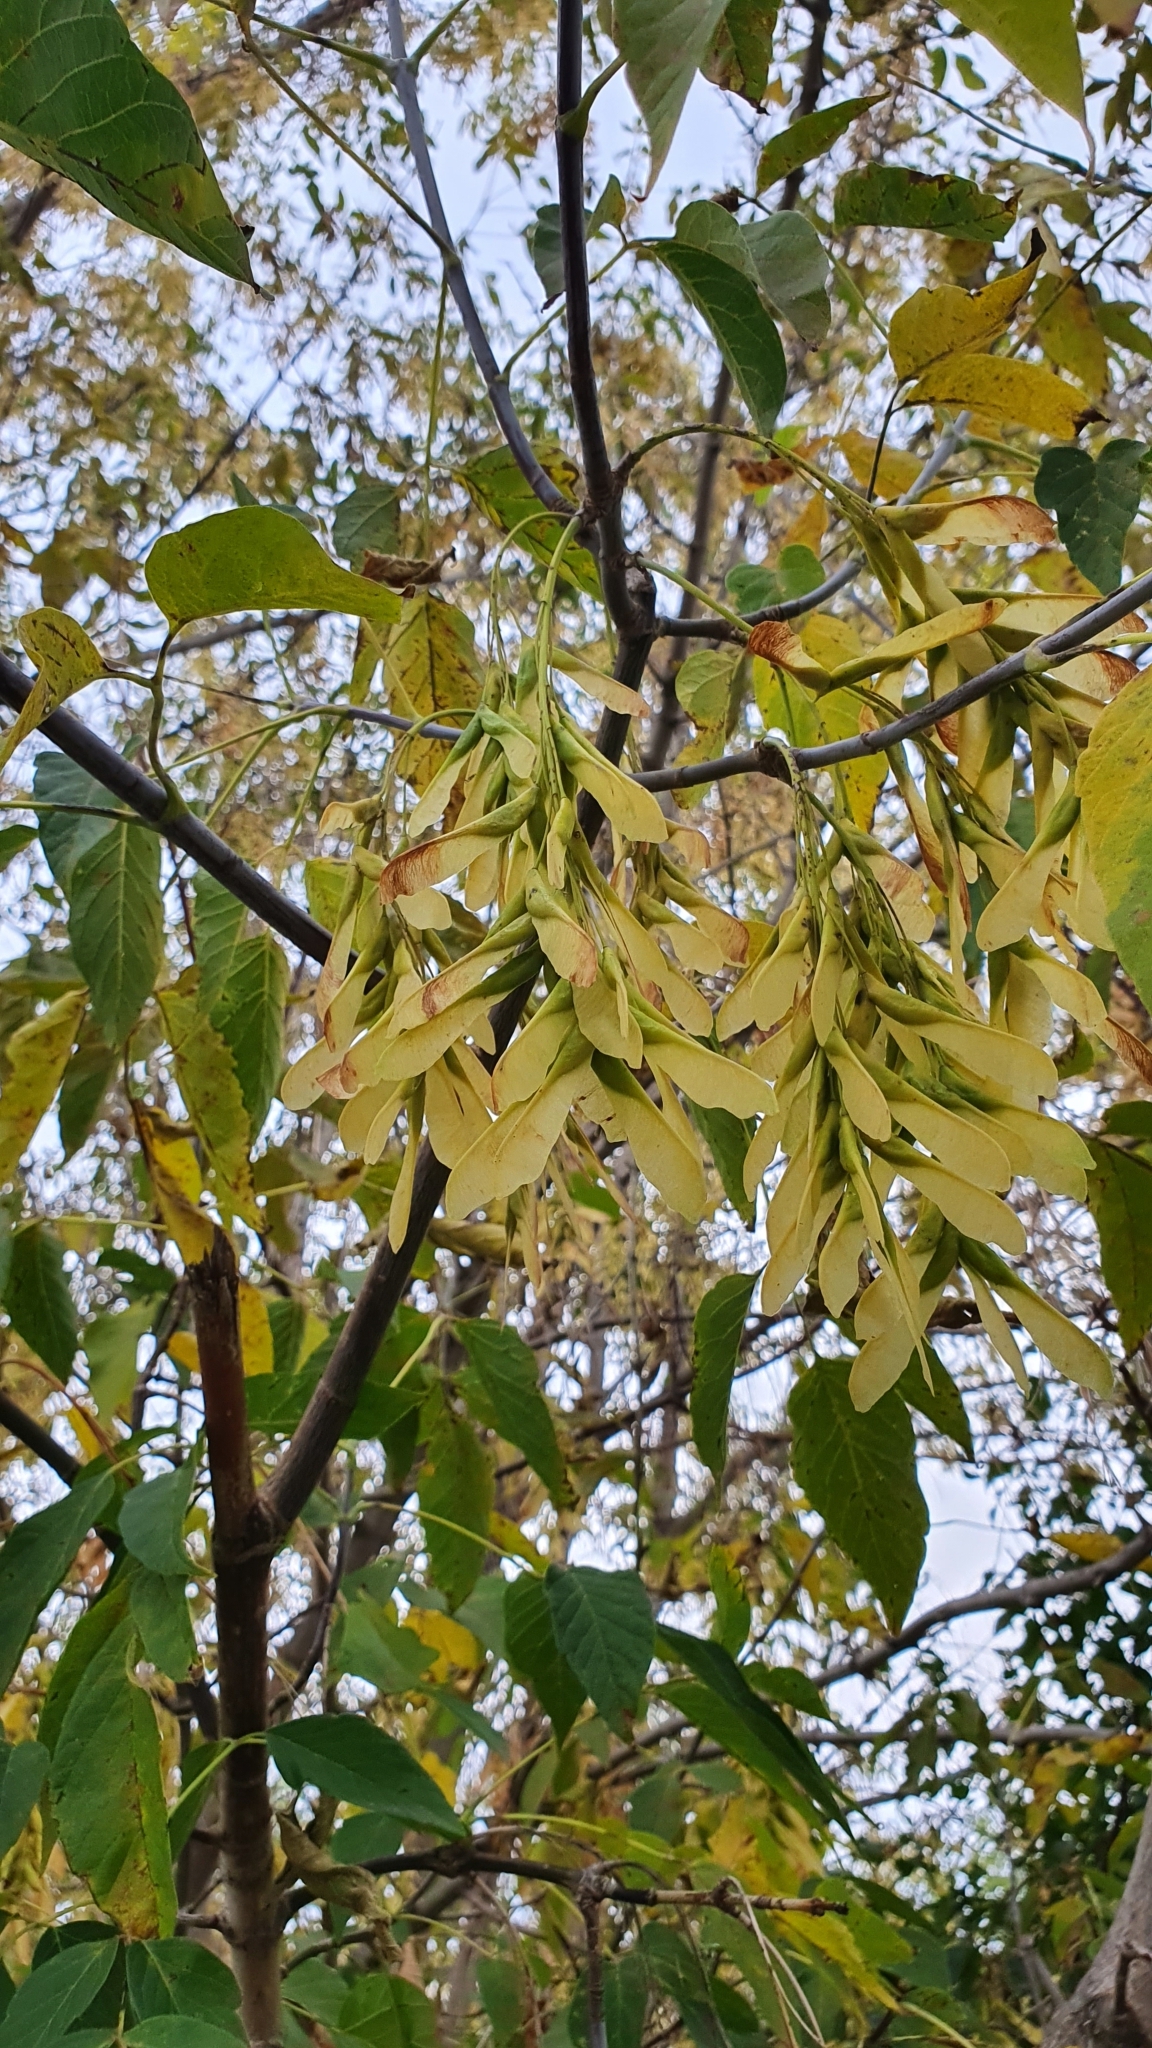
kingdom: Plantae
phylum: Tracheophyta
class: Magnoliopsida
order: Sapindales
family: Sapindaceae
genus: Acer
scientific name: Acer negundo
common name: Ashleaf maple
